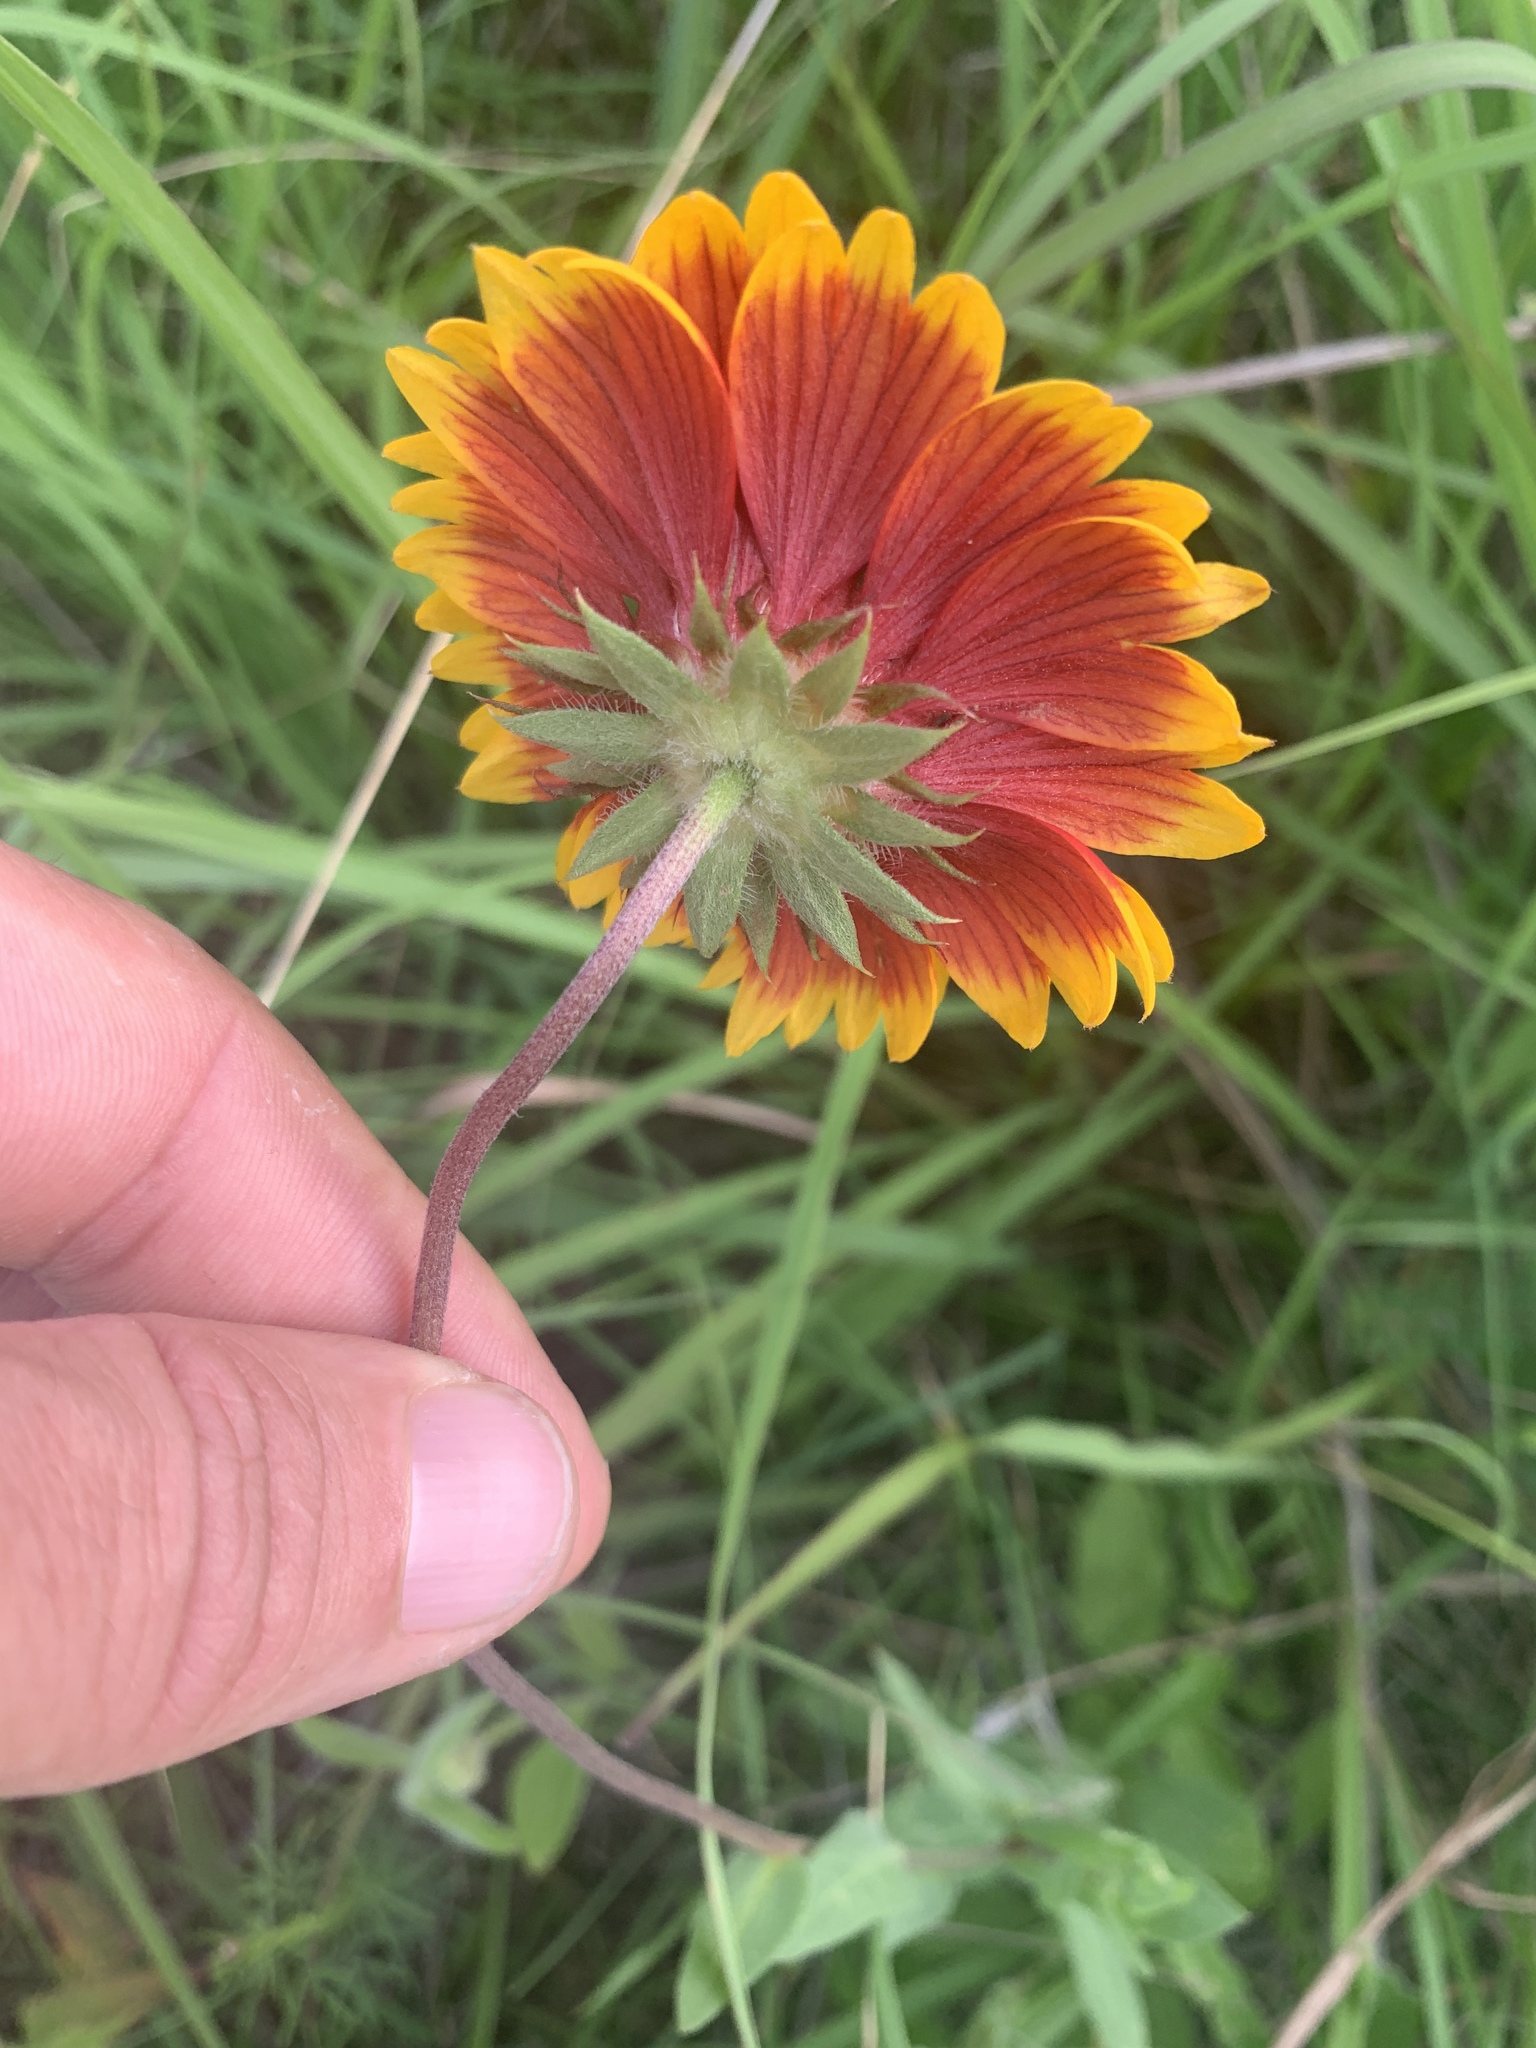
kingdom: Plantae
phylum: Tracheophyta
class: Magnoliopsida
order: Asterales
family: Asteraceae
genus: Gaillardia
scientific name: Gaillardia pulchella
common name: Firewheel
